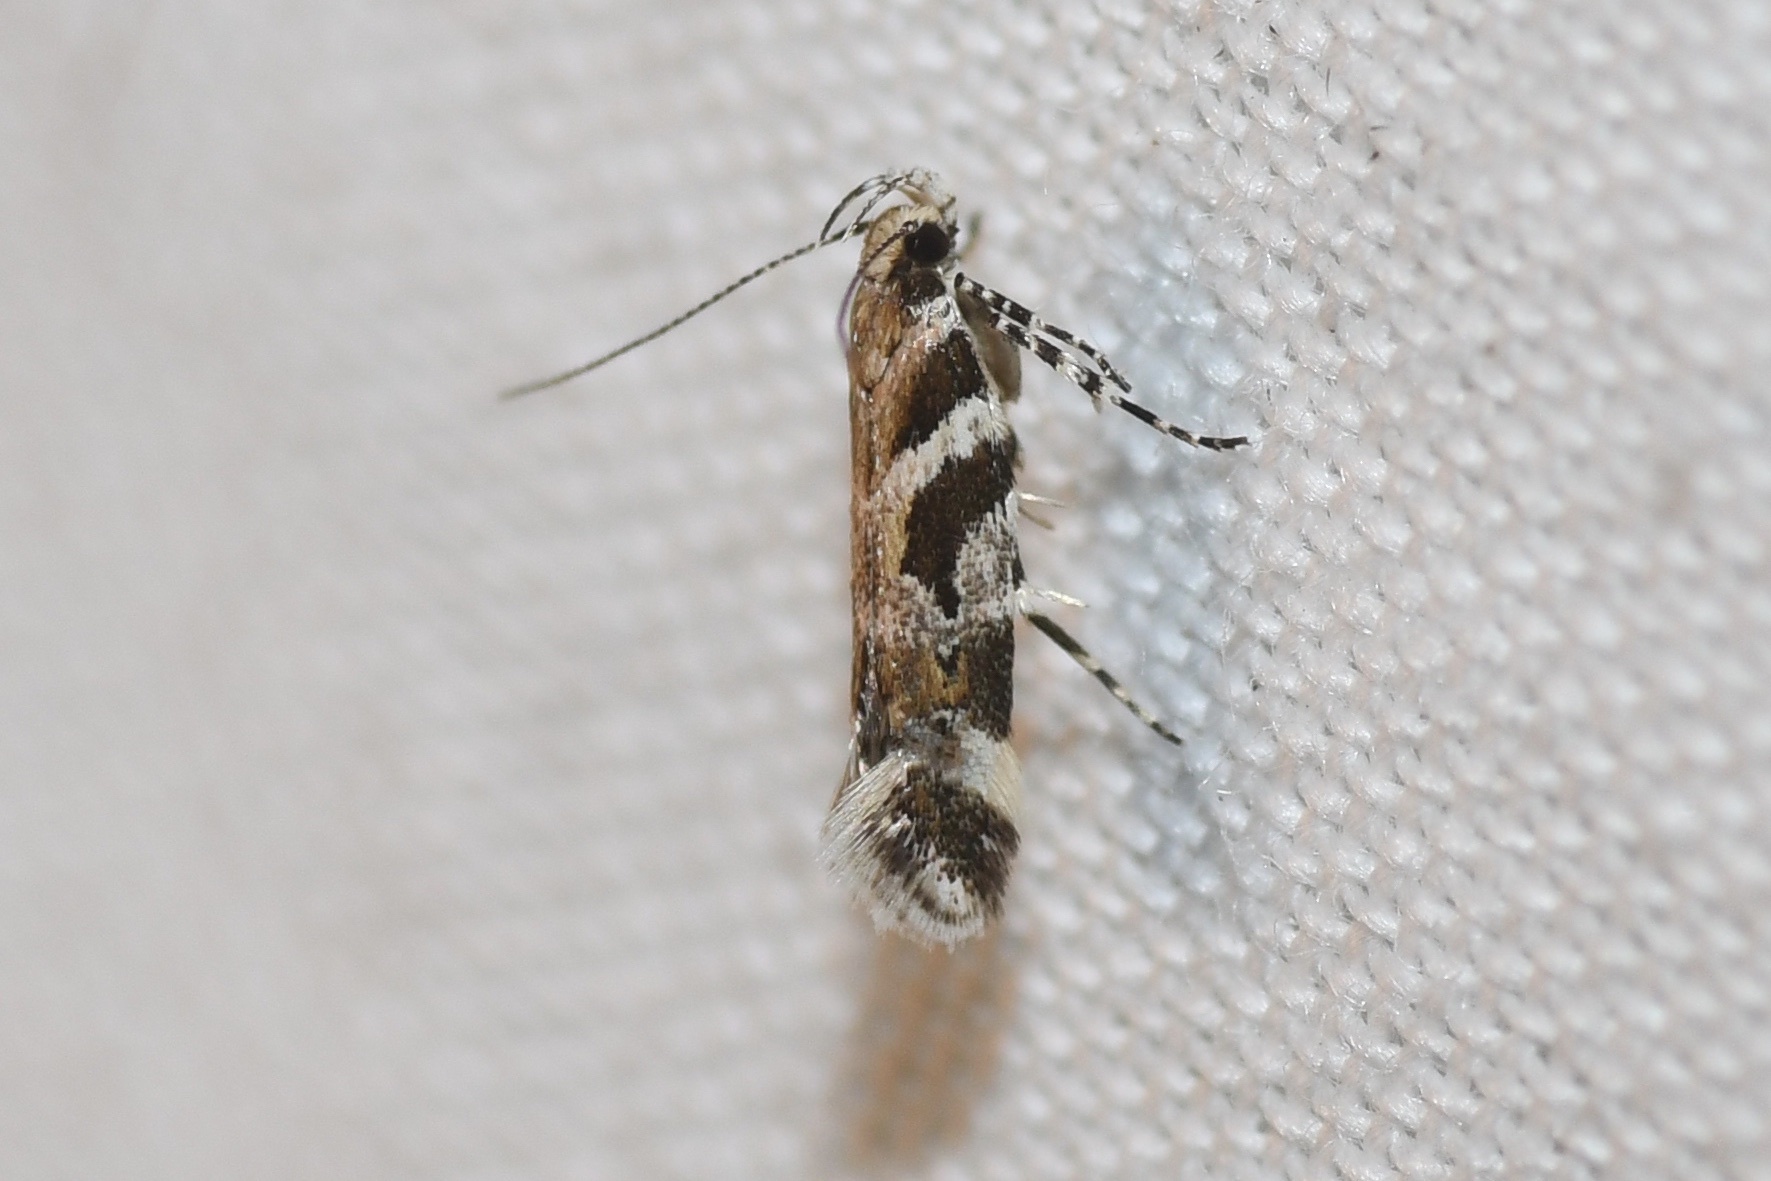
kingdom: Animalia
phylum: Arthropoda
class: Insecta
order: Lepidoptera
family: Gelechiidae
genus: Aristotelia
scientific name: Aristotelia roseosuffusella
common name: Pink-washed aristotelia moth
